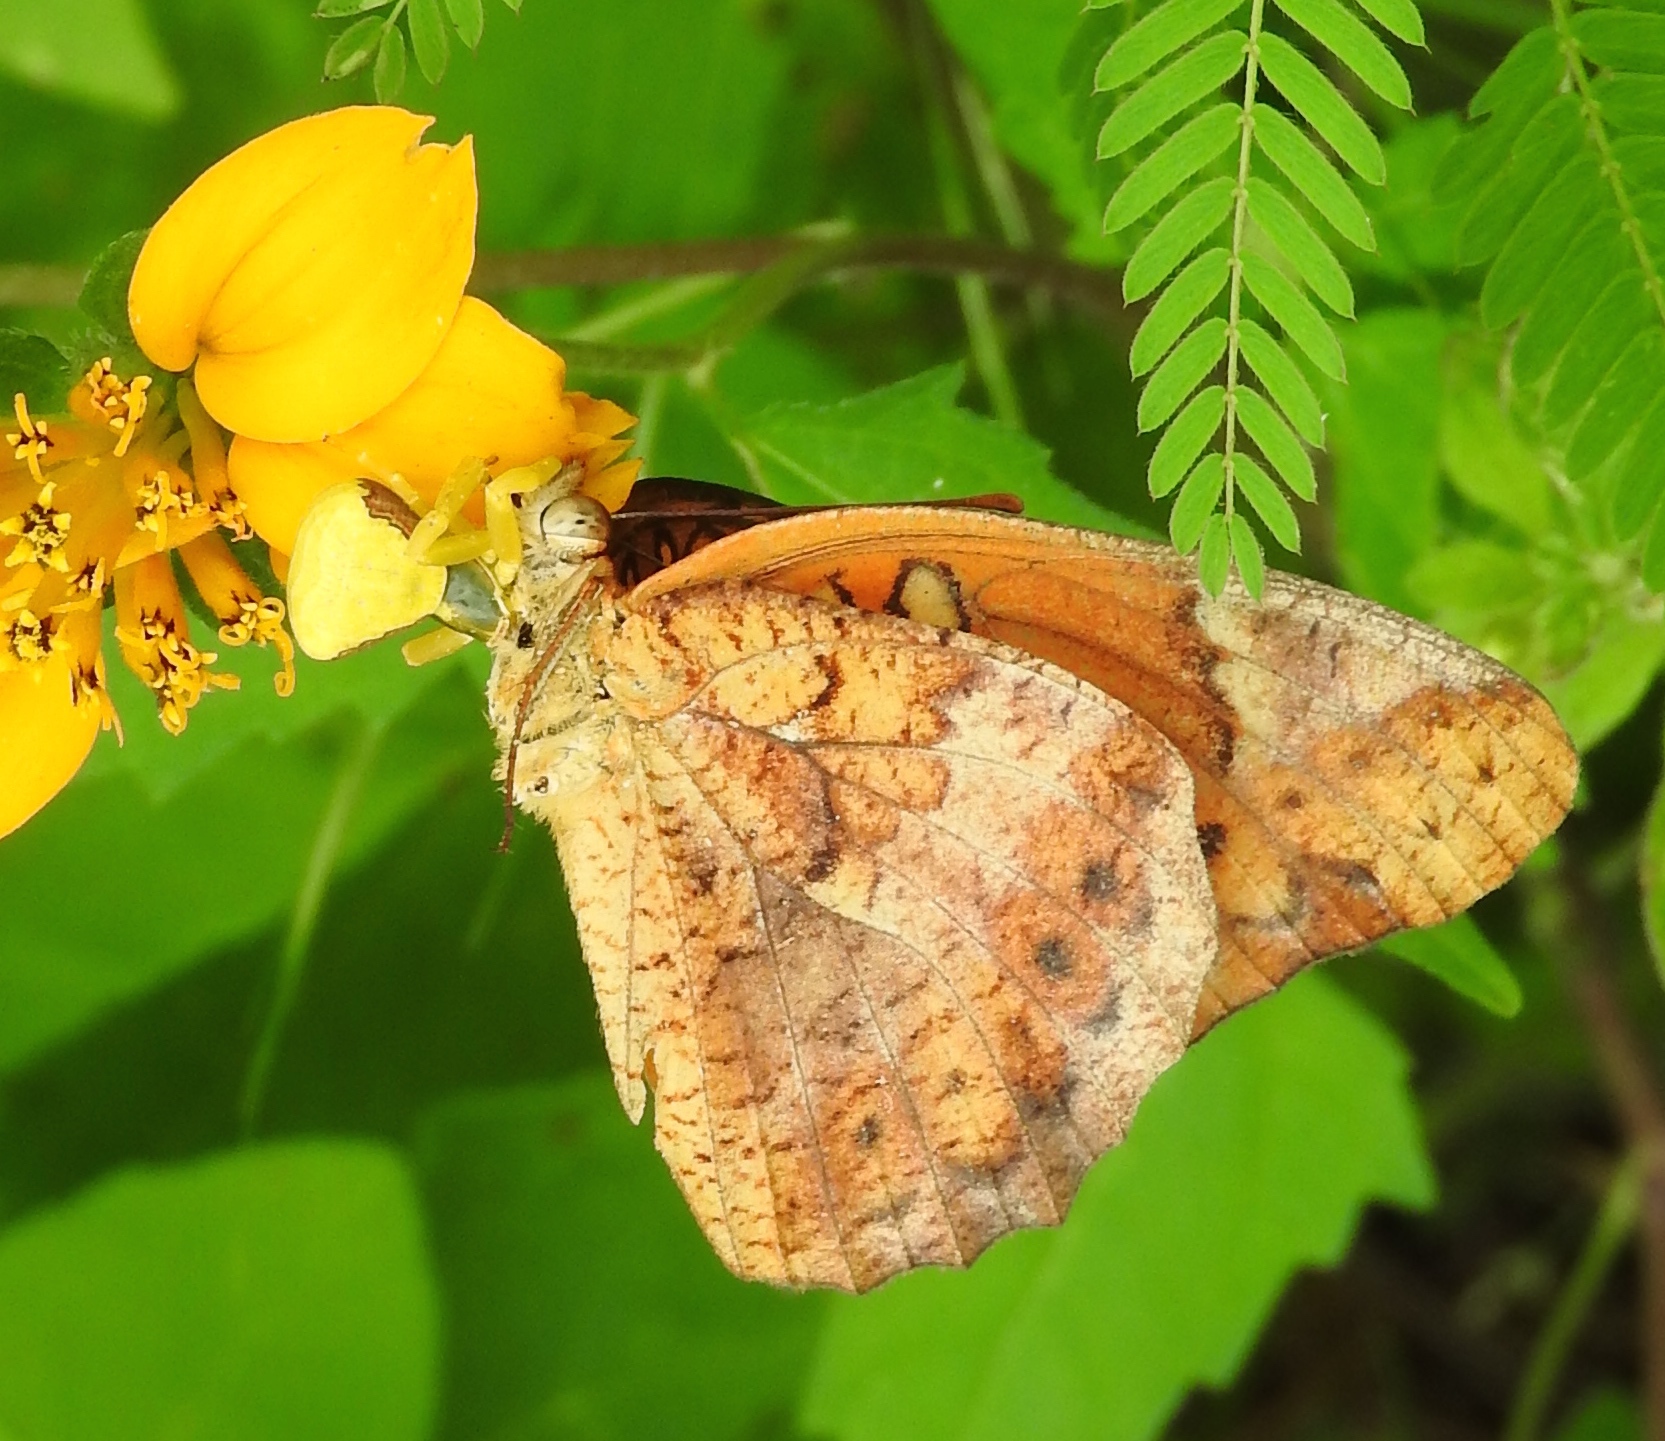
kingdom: Animalia
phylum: Arthropoda
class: Insecta
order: Lepidoptera
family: Nymphalidae
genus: Euptoieta
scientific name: Euptoieta hegesia
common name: Mexican fritillary
